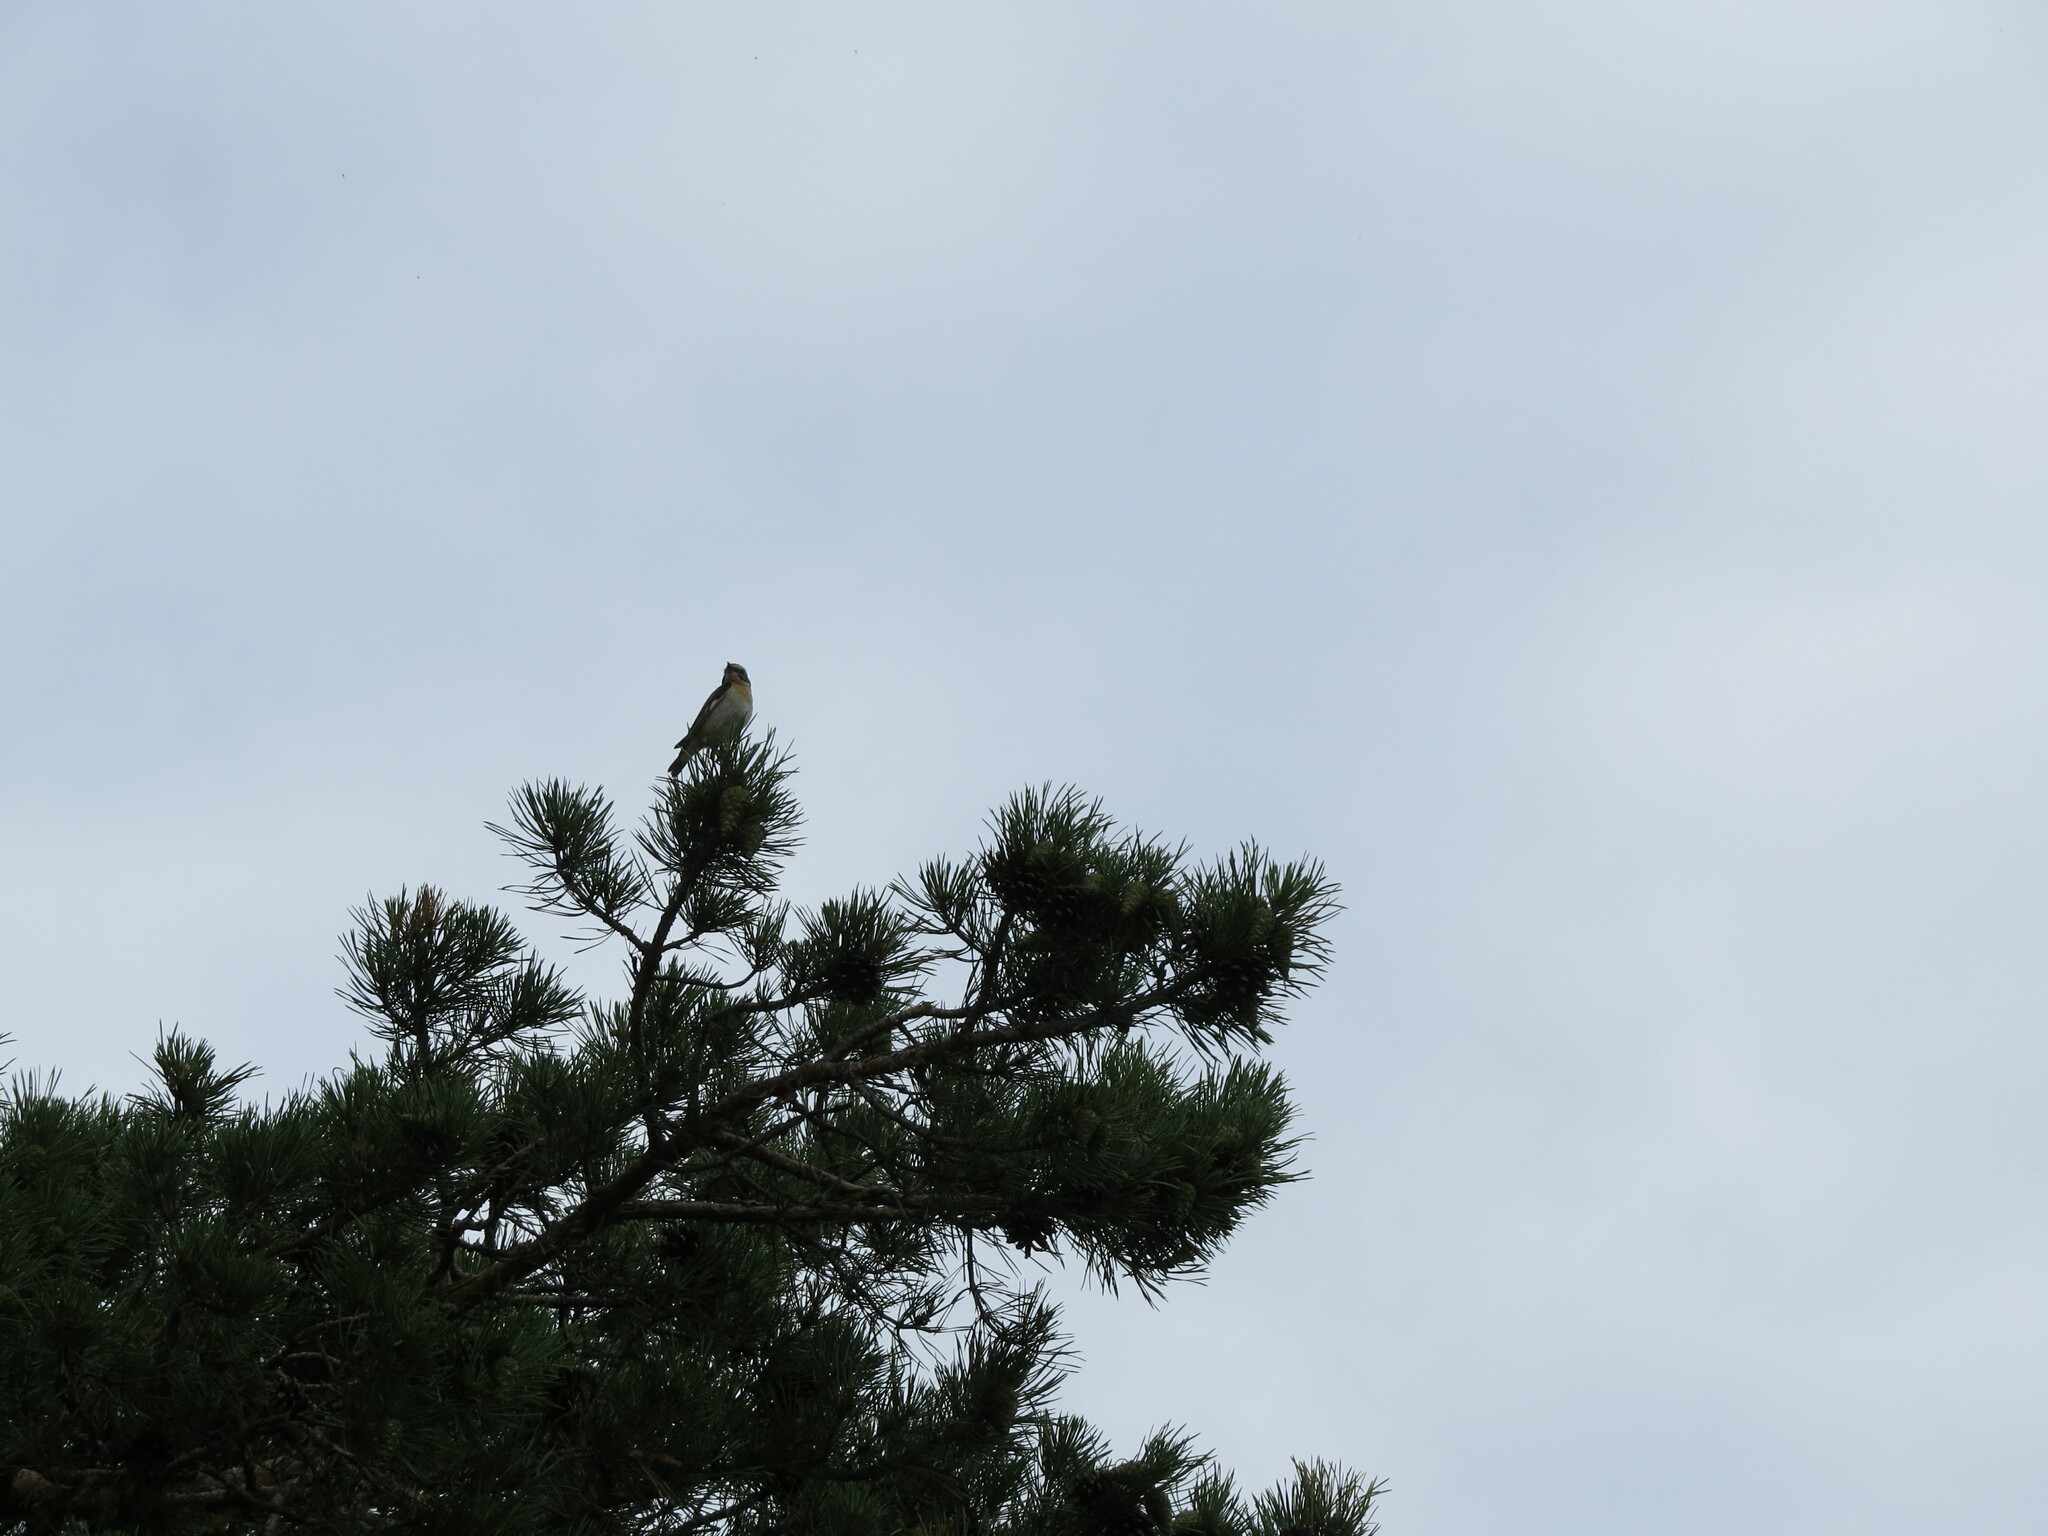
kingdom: Animalia
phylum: Chordata
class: Aves
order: Passeriformes
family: Muscicapidae
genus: Saxicola
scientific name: Saxicola rubetra
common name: Whinchat
